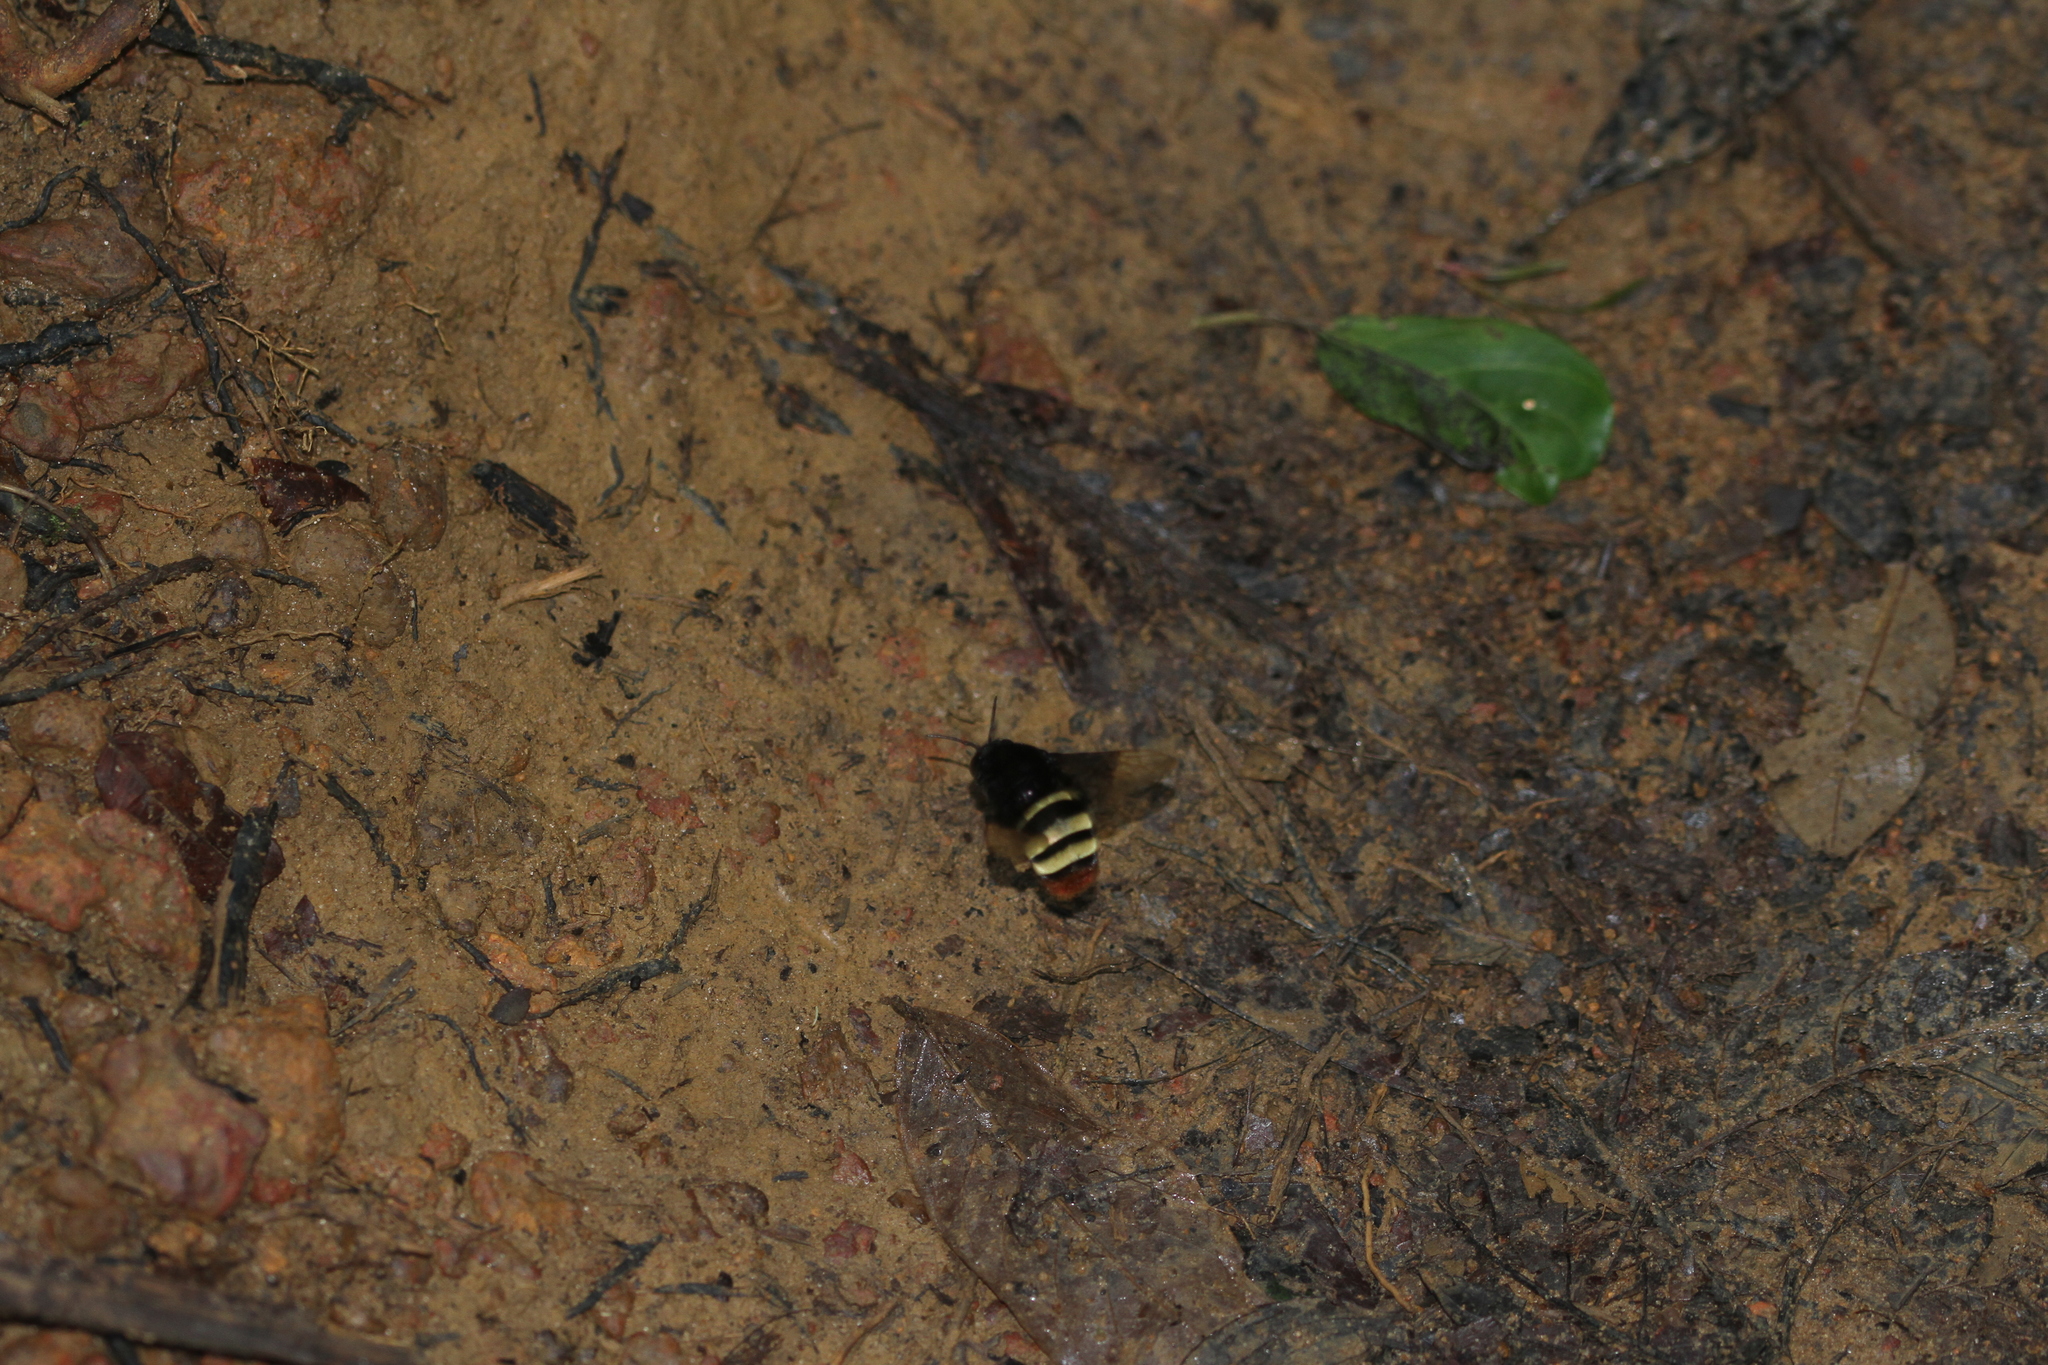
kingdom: Animalia
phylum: Arthropoda
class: Insecta
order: Hymenoptera
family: Apidae
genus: Eulaema
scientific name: Eulaema
